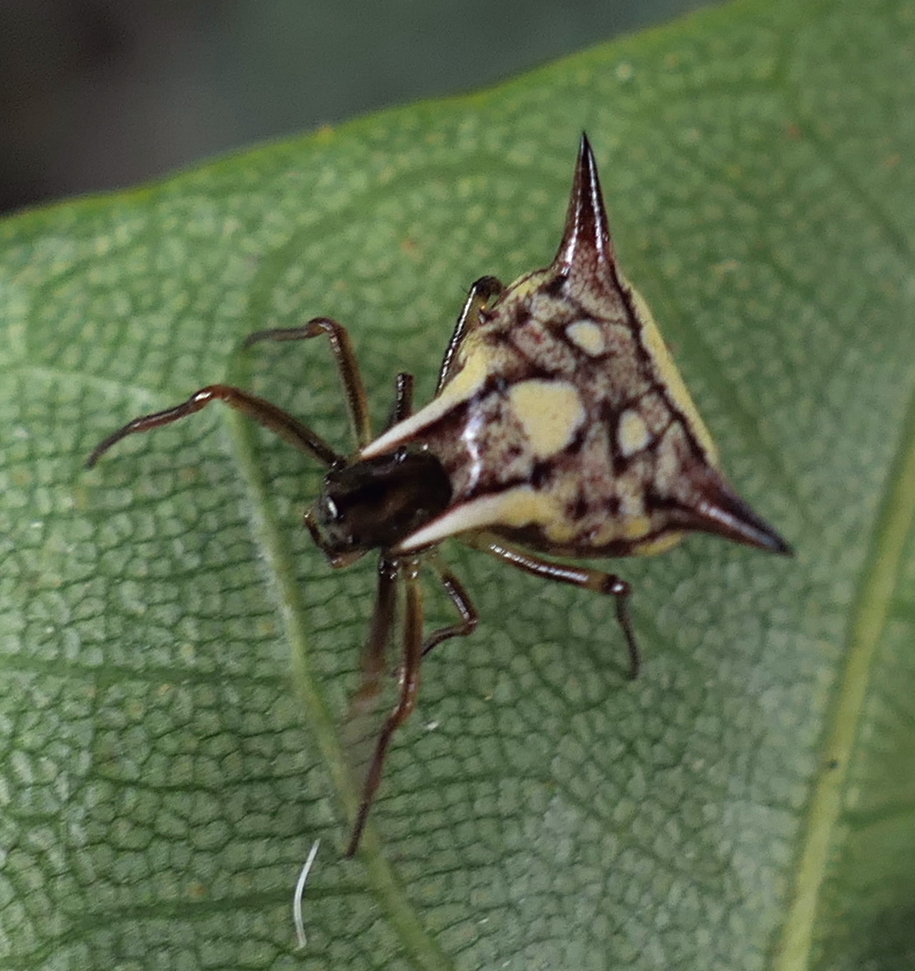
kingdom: Animalia
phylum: Arthropoda
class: Arachnida
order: Araneae
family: Araneidae
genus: Micrathena
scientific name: Micrathena evansi
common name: Orb weavers
